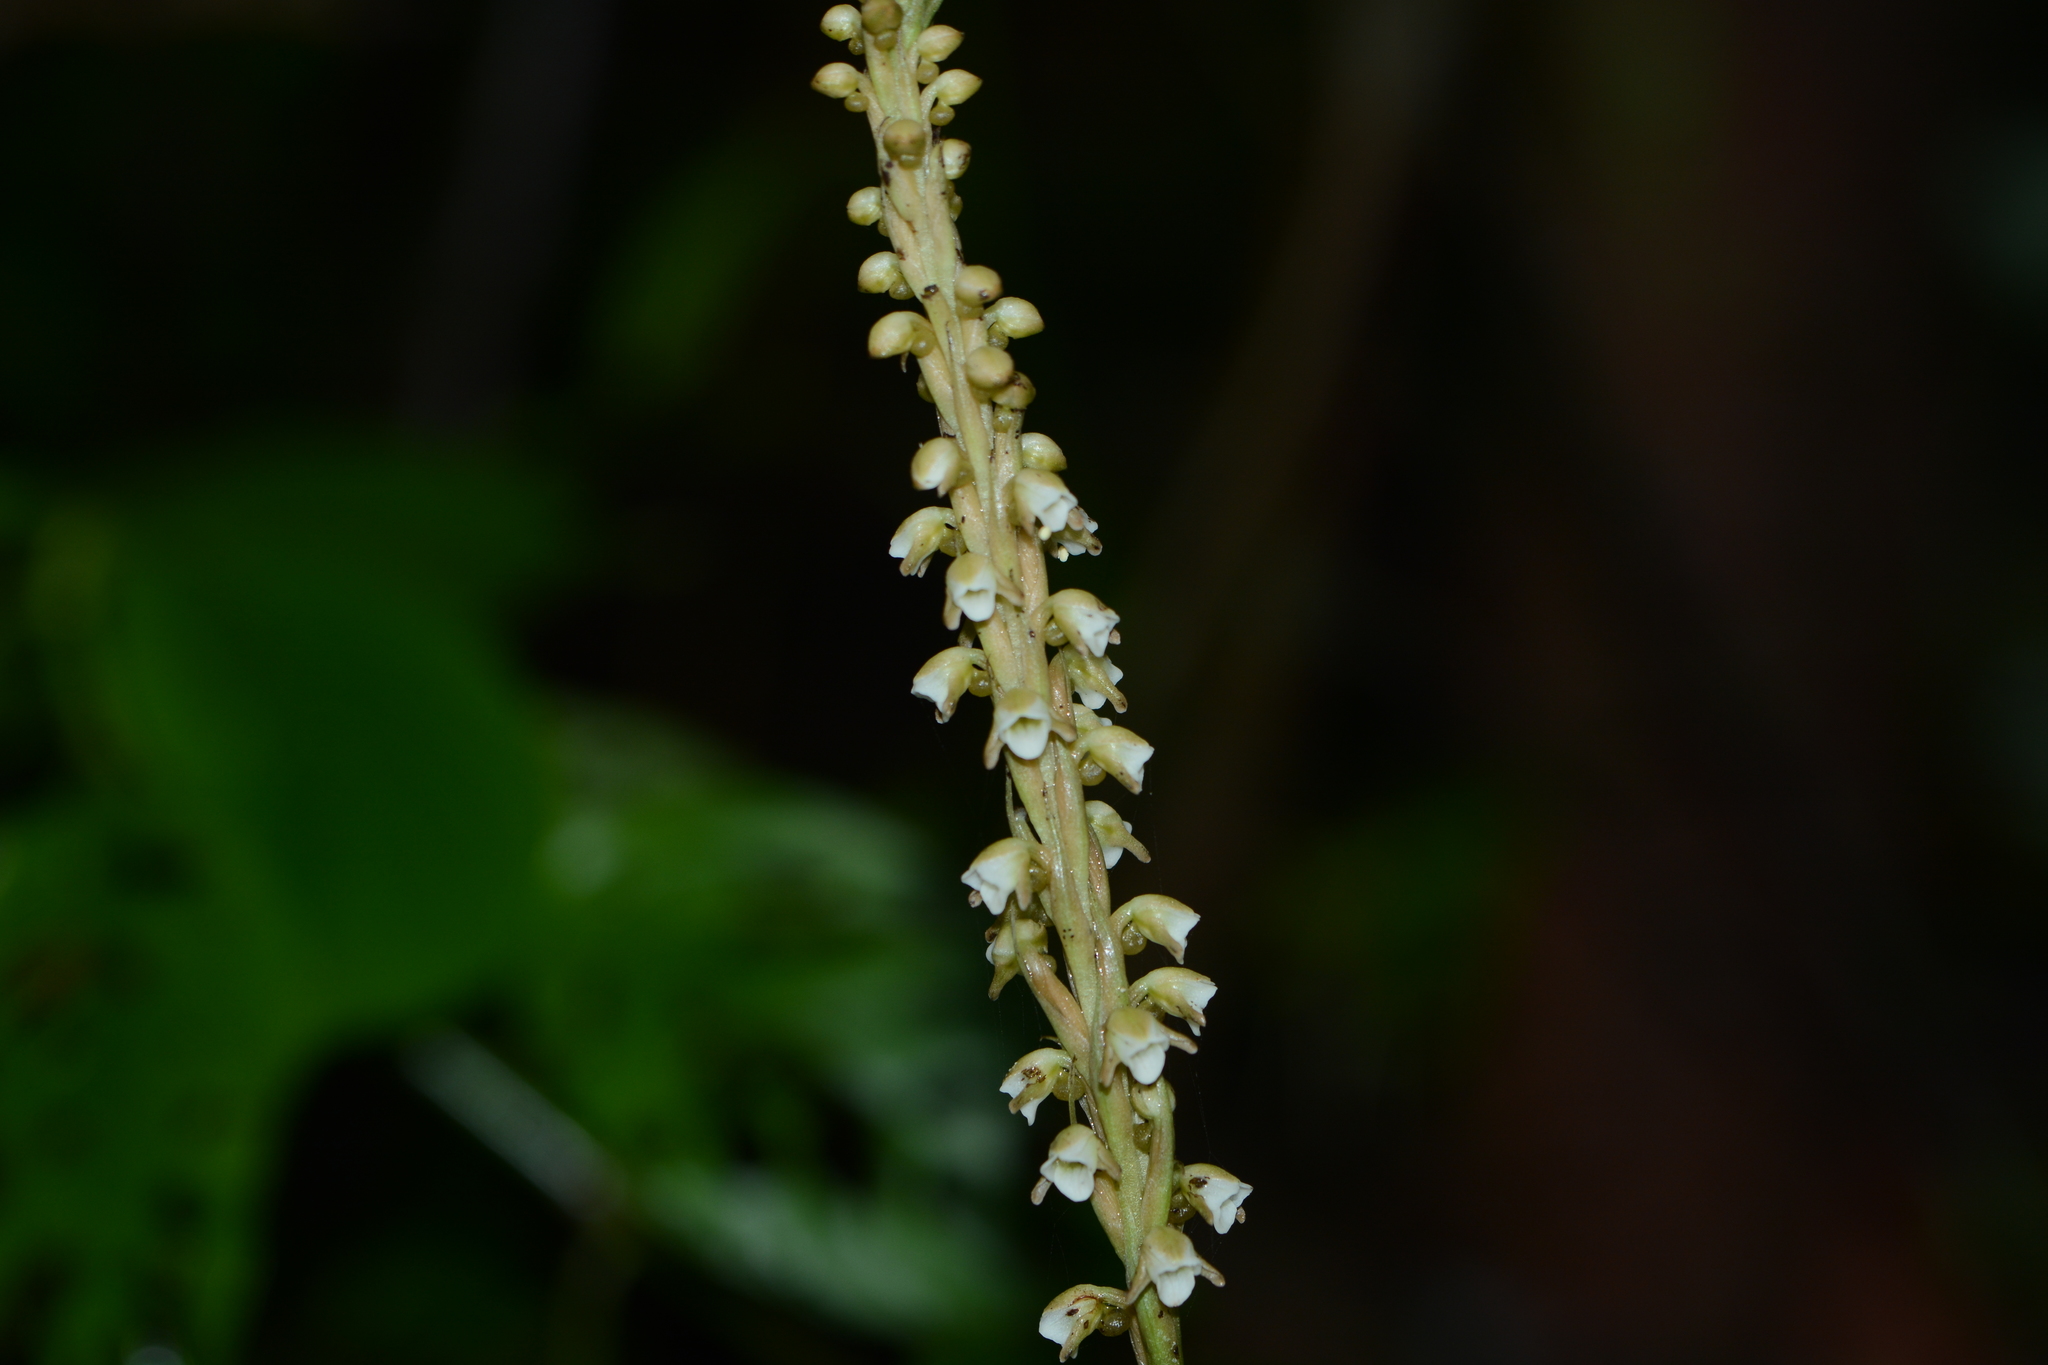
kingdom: Plantae
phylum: Tracheophyta
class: Liliopsida
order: Asparagales
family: Orchidaceae
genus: Peristylus
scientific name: Peristylus plantagineus
